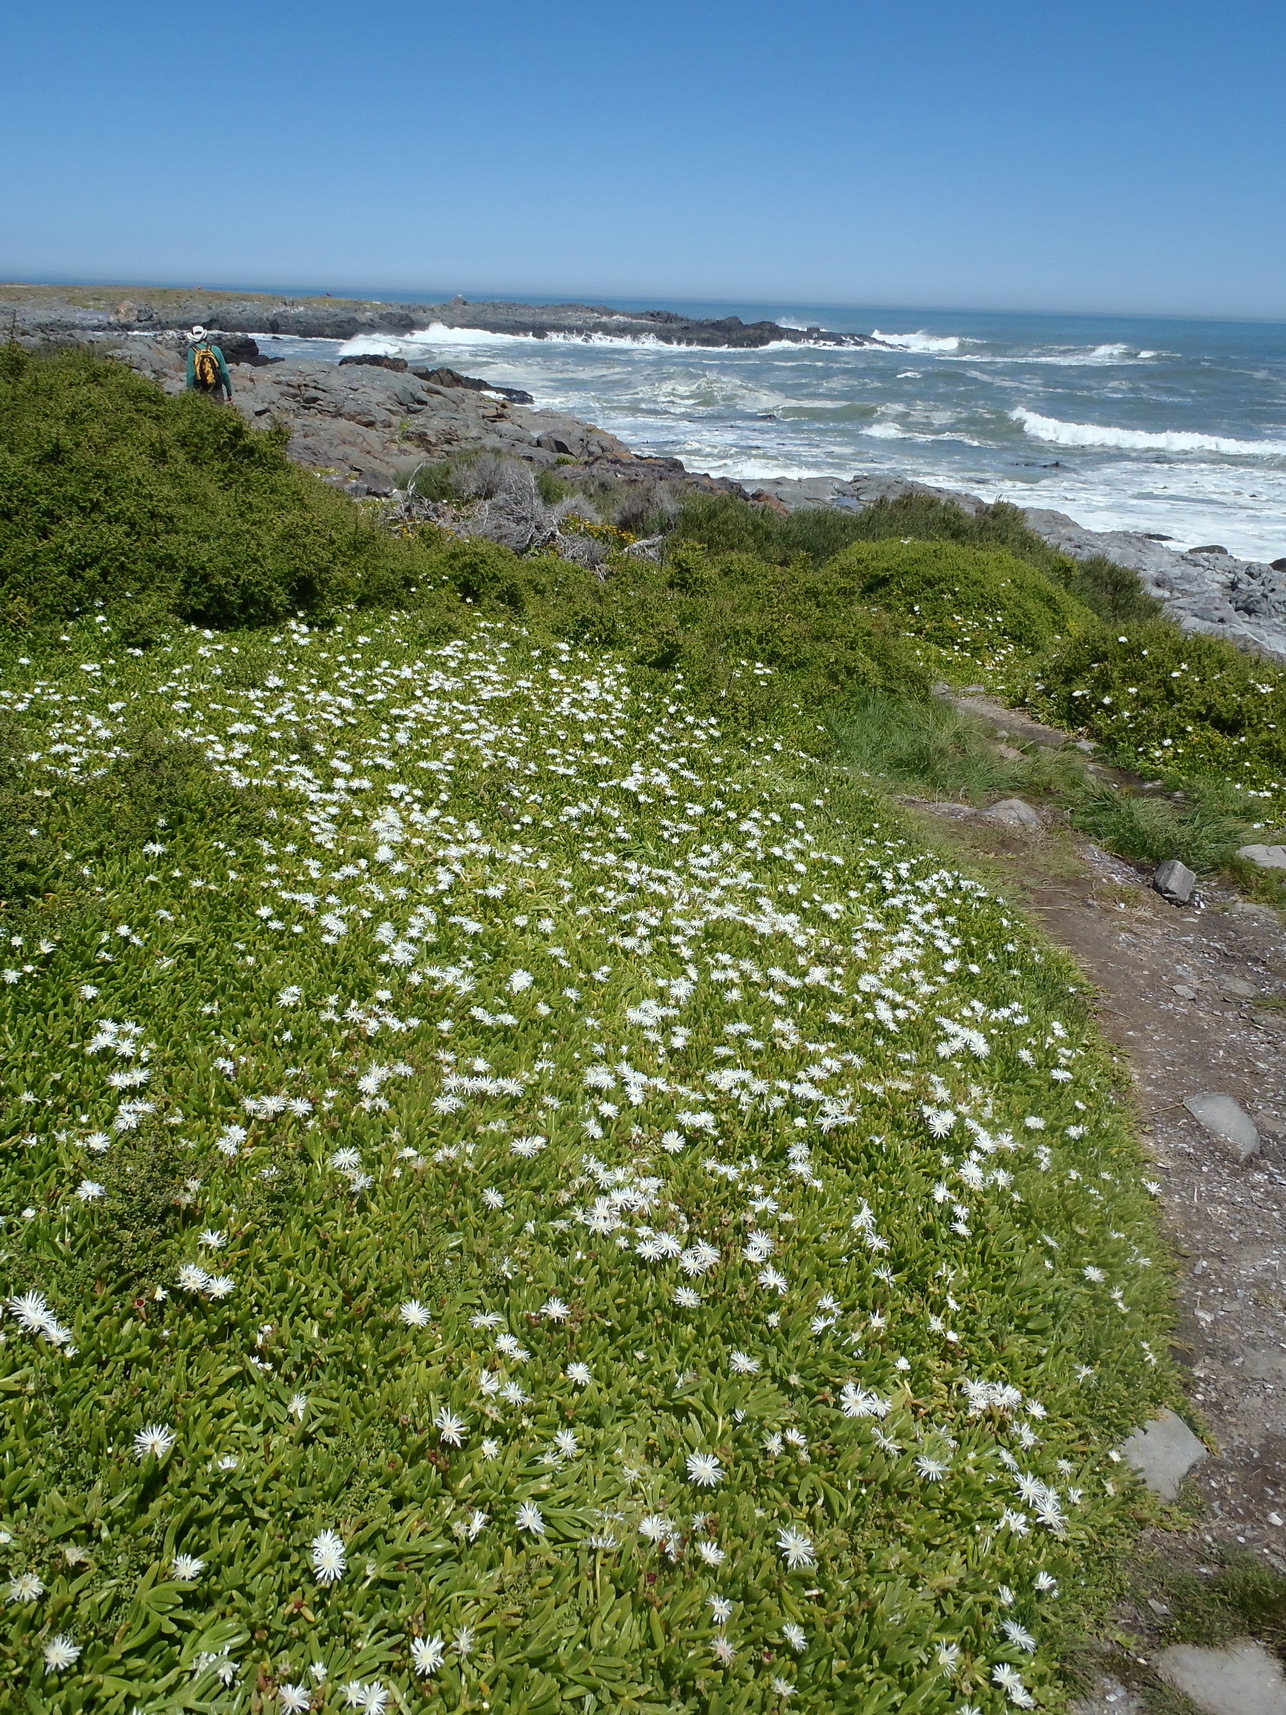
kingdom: Plantae
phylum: Tracheophyta
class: Magnoliopsida
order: Caryophyllales
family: Aizoaceae
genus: Disphyma
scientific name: Disphyma crassifolium
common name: Purple dewplant
